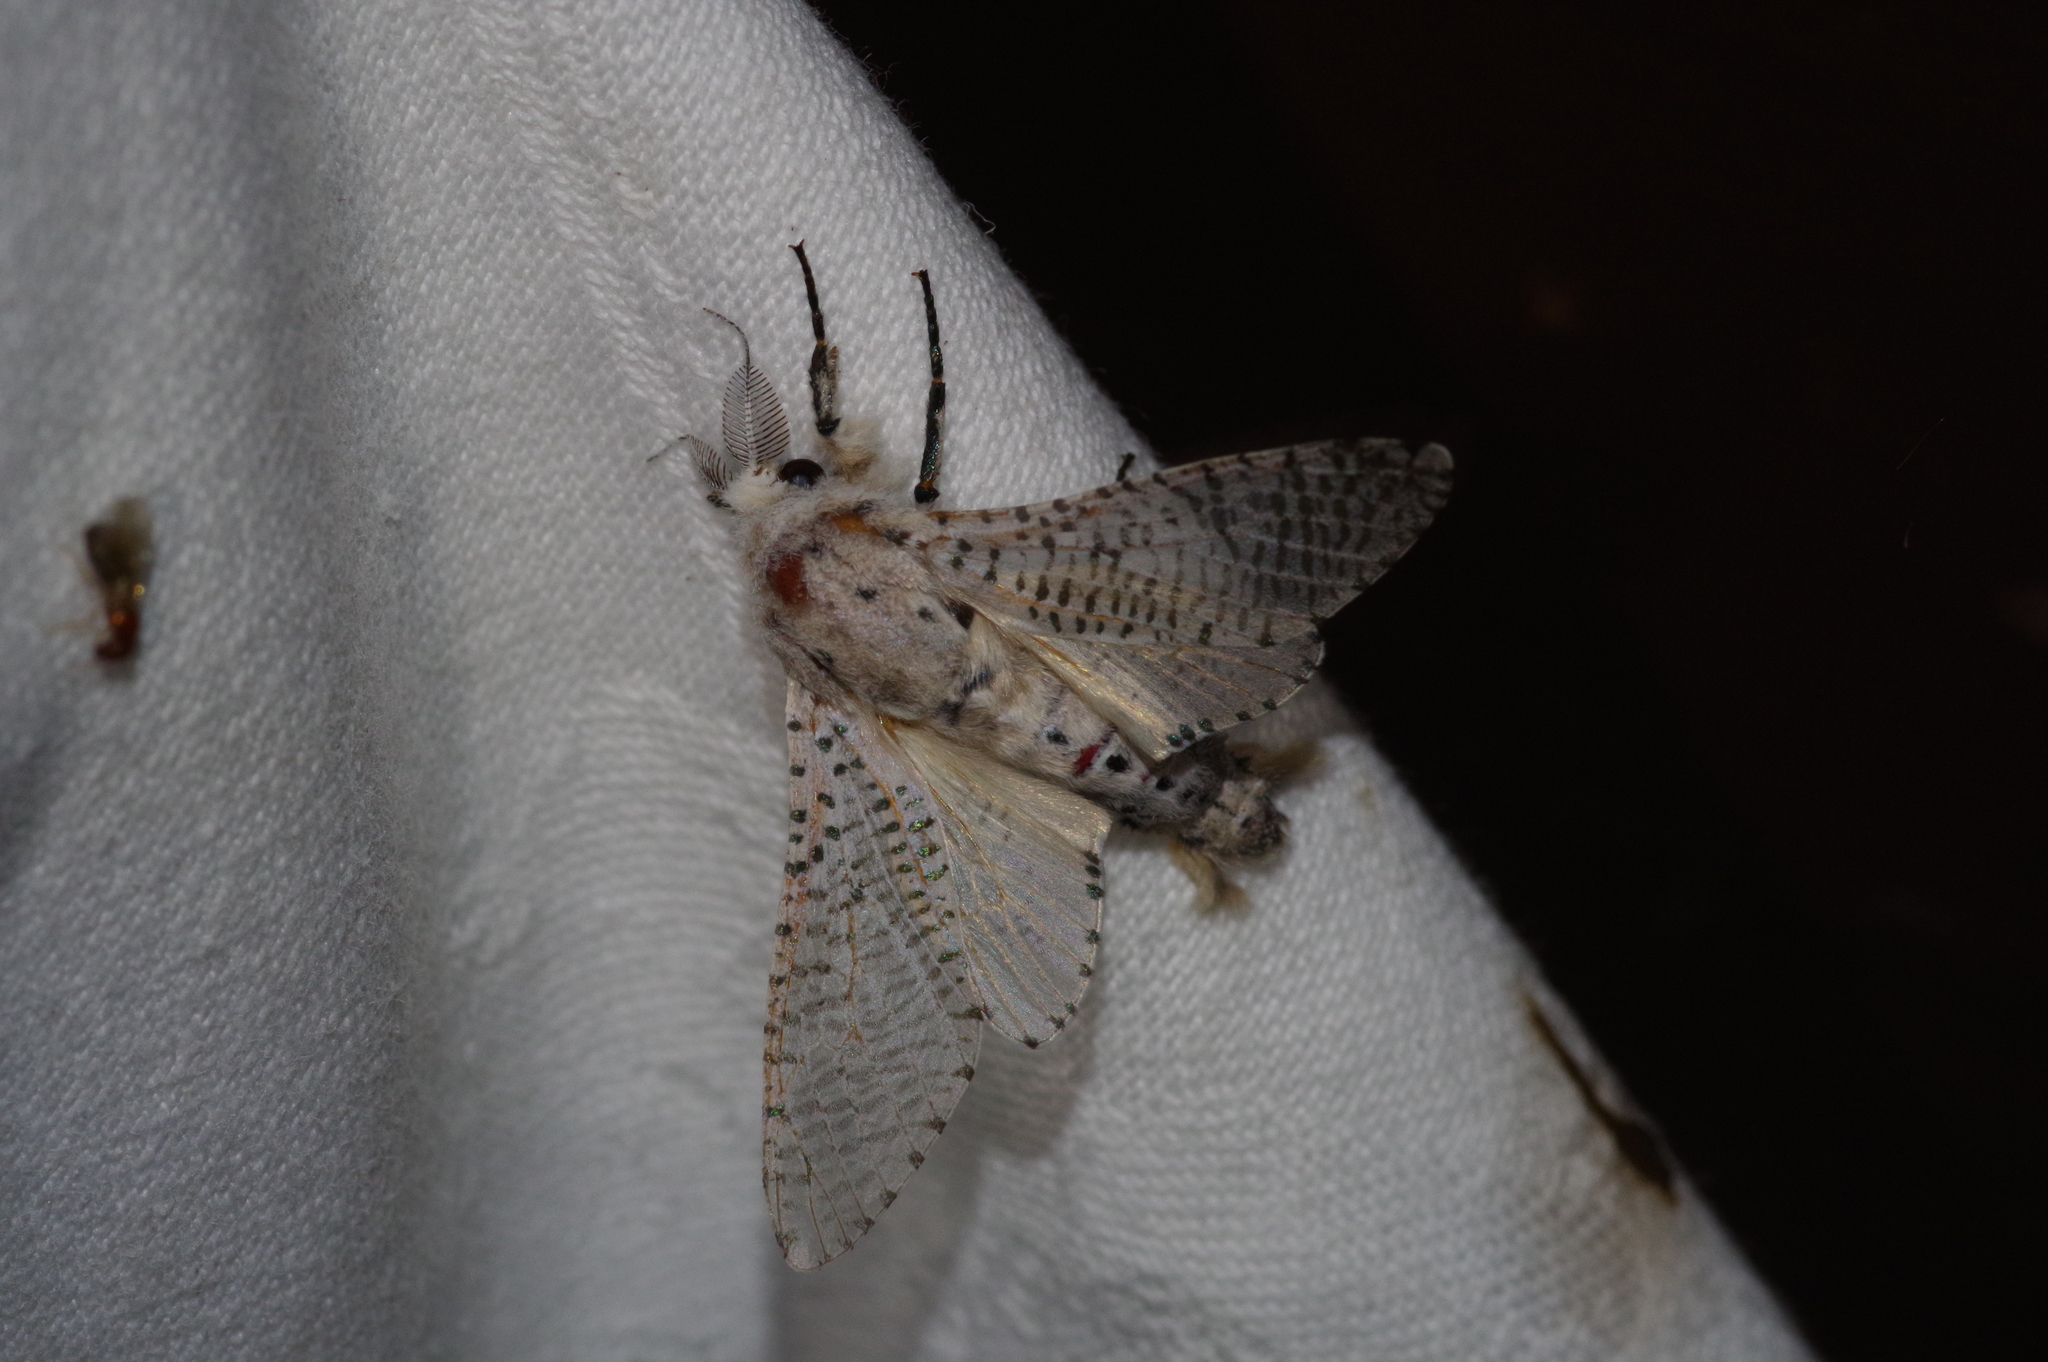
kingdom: Animalia
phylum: Arthropoda
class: Insecta
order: Lepidoptera
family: Cossidae
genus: Orientozeuzera
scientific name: Orientozeuzera caudata
